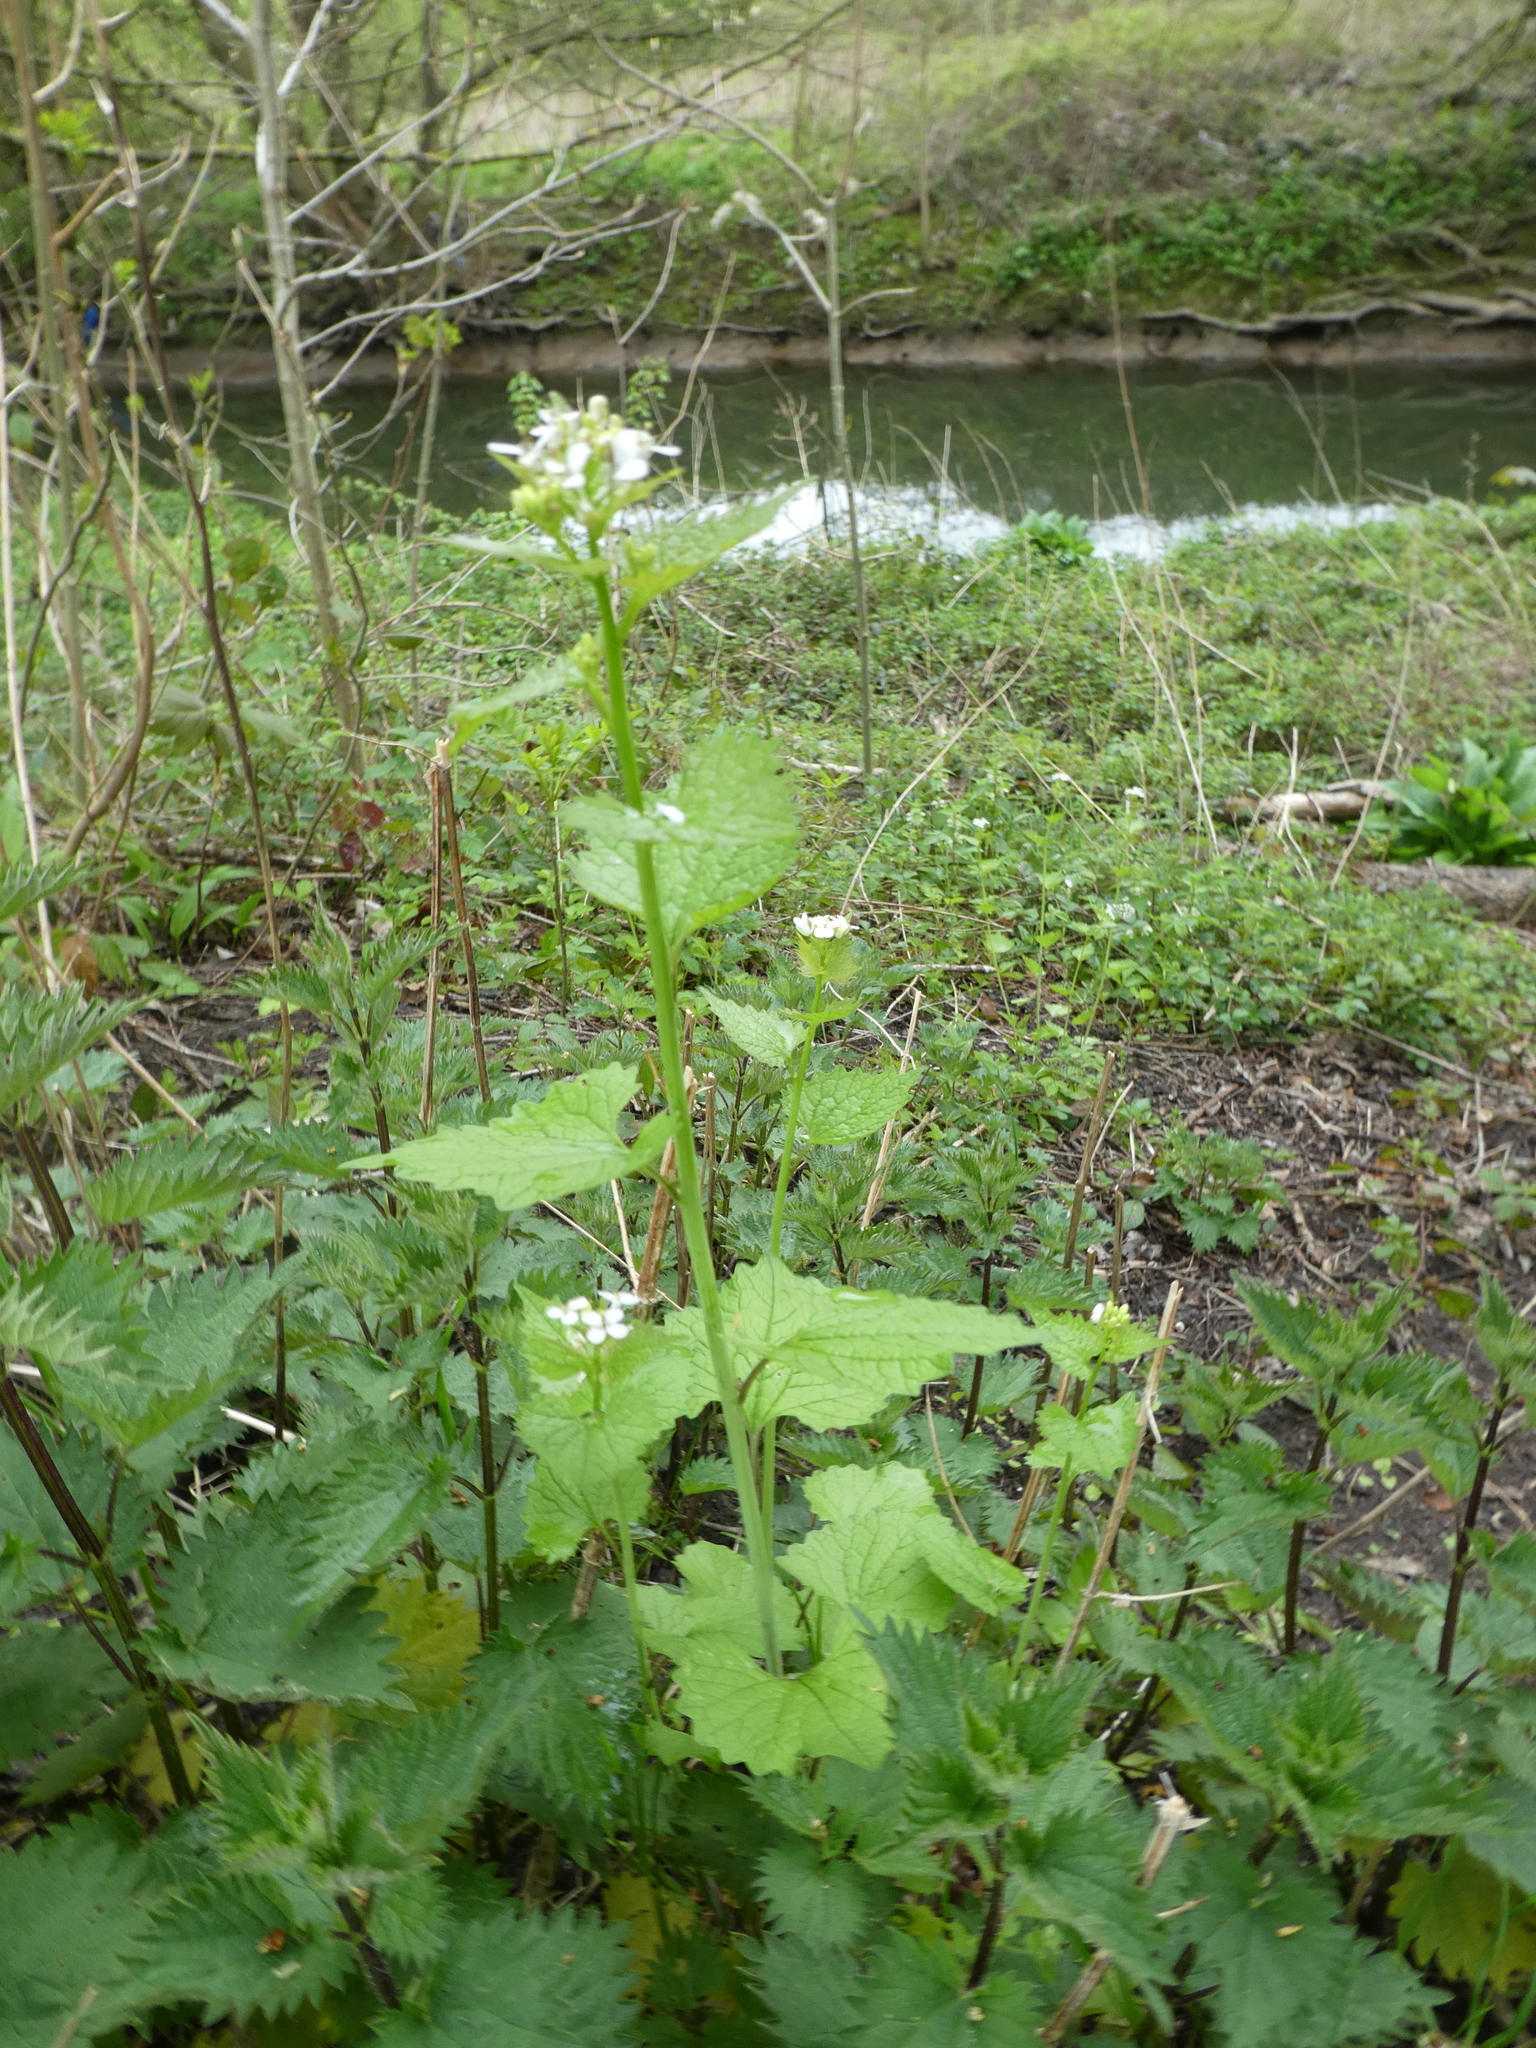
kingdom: Plantae
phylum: Tracheophyta
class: Magnoliopsida
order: Brassicales
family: Brassicaceae
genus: Alliaria
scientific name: Alliaria petiolata
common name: Garlic mustard
